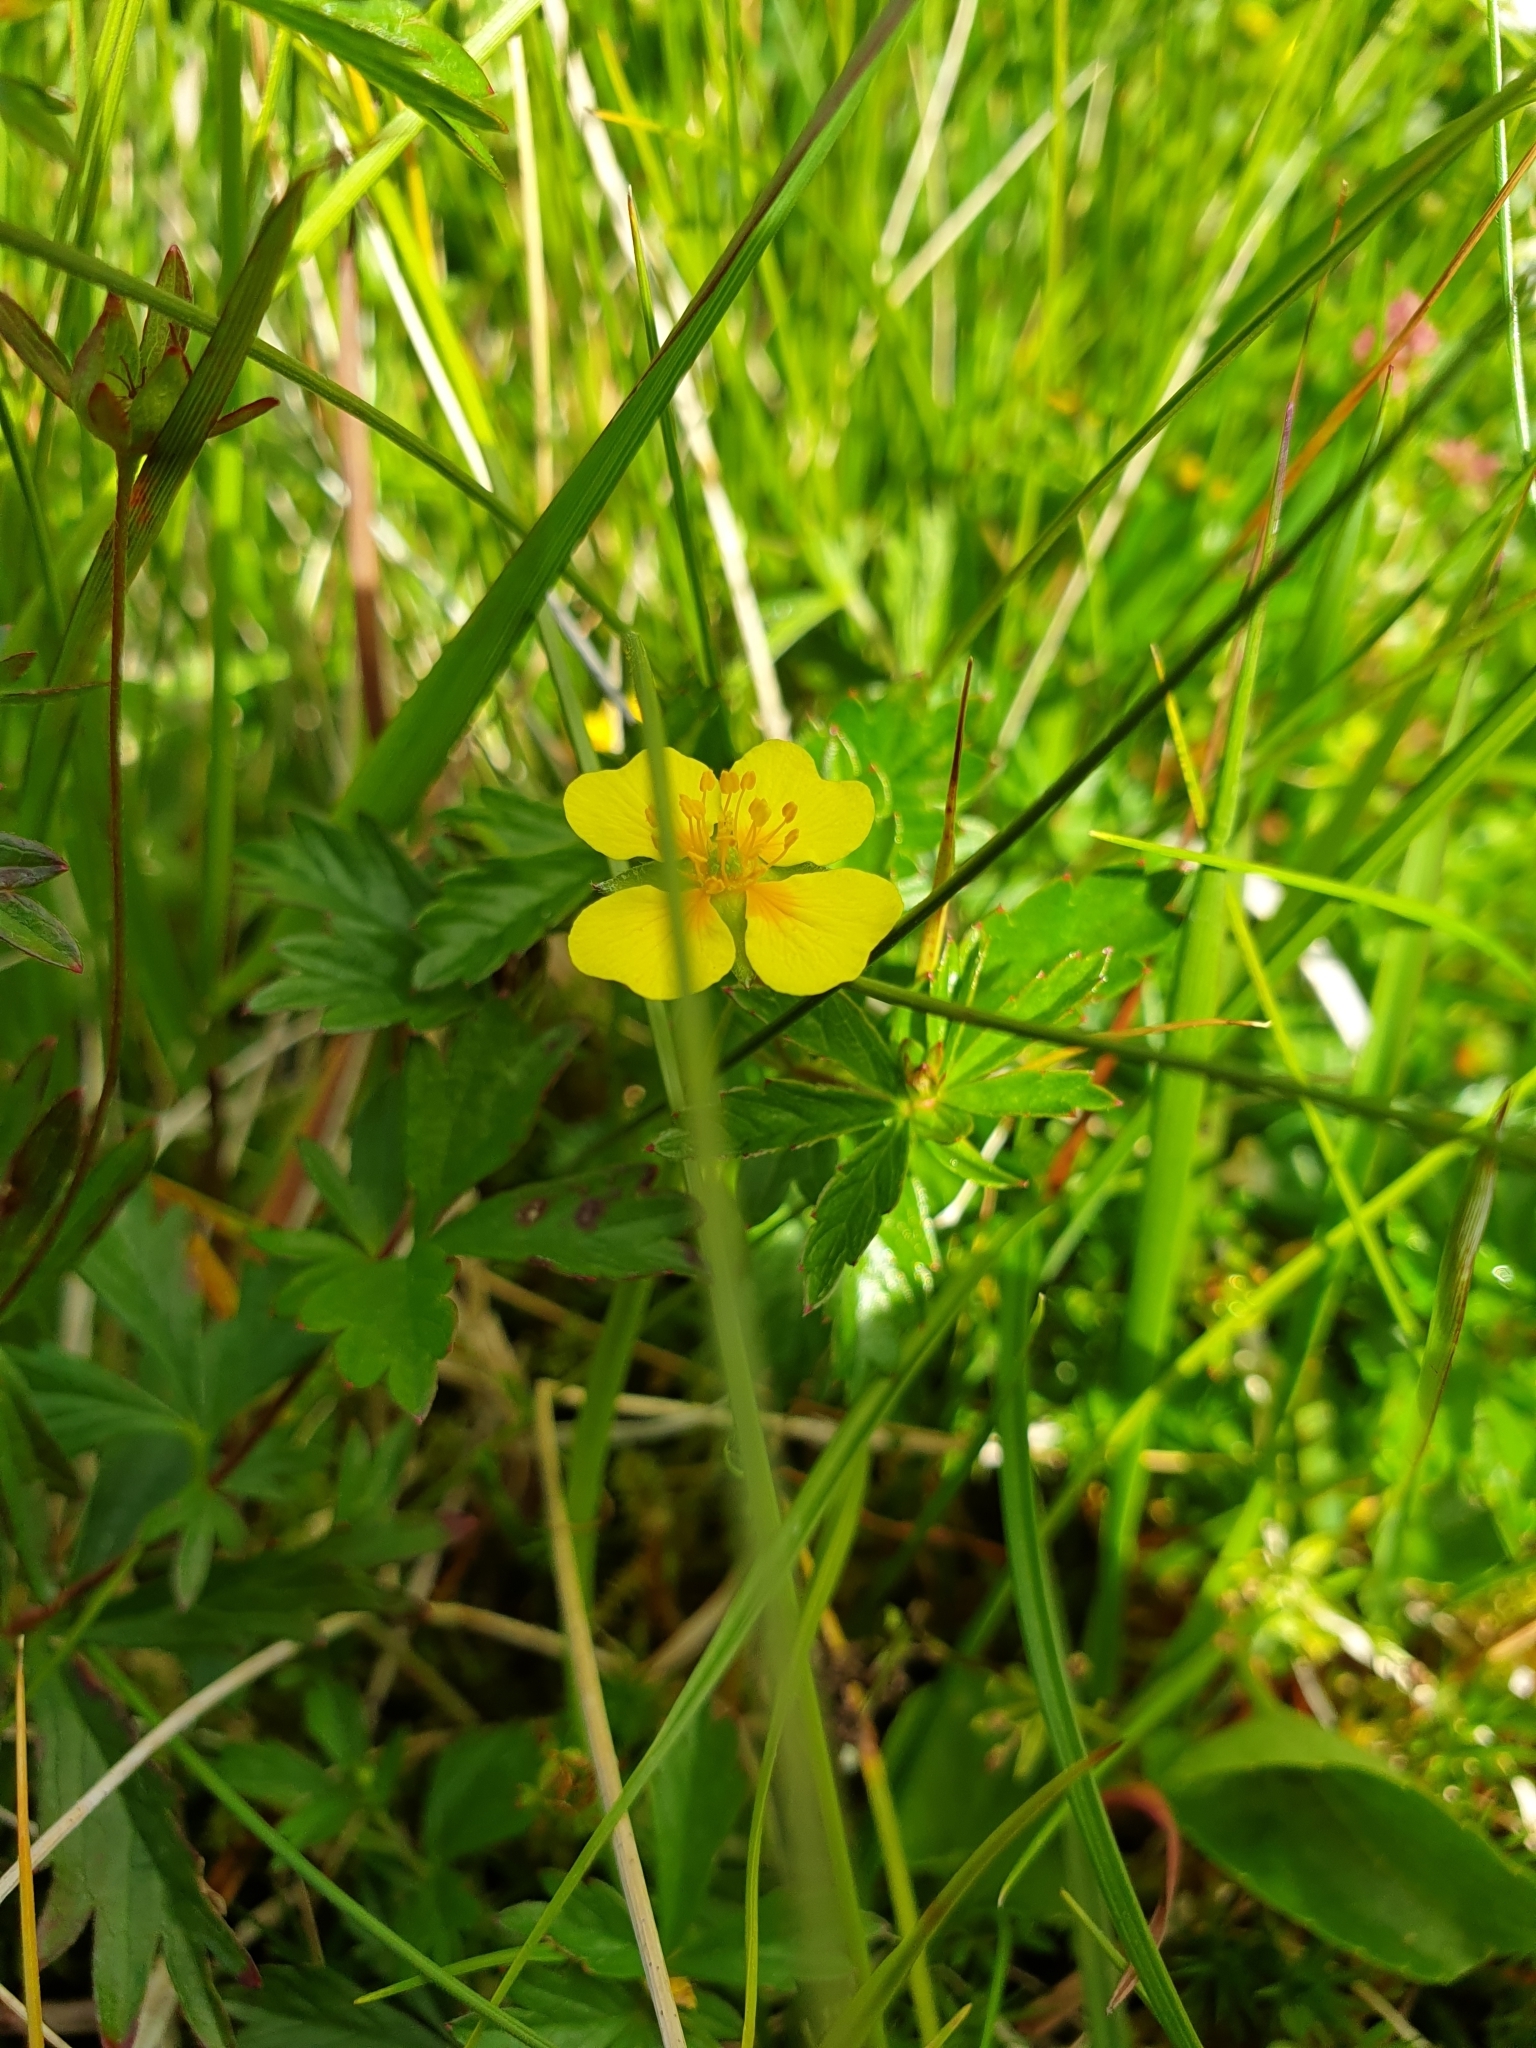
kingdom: Plantae
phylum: Tracheophyta
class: Magnoliopsida
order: Rosales
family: Rosaceae
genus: Potentilla
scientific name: Potentilla erecta
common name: Tormentil
